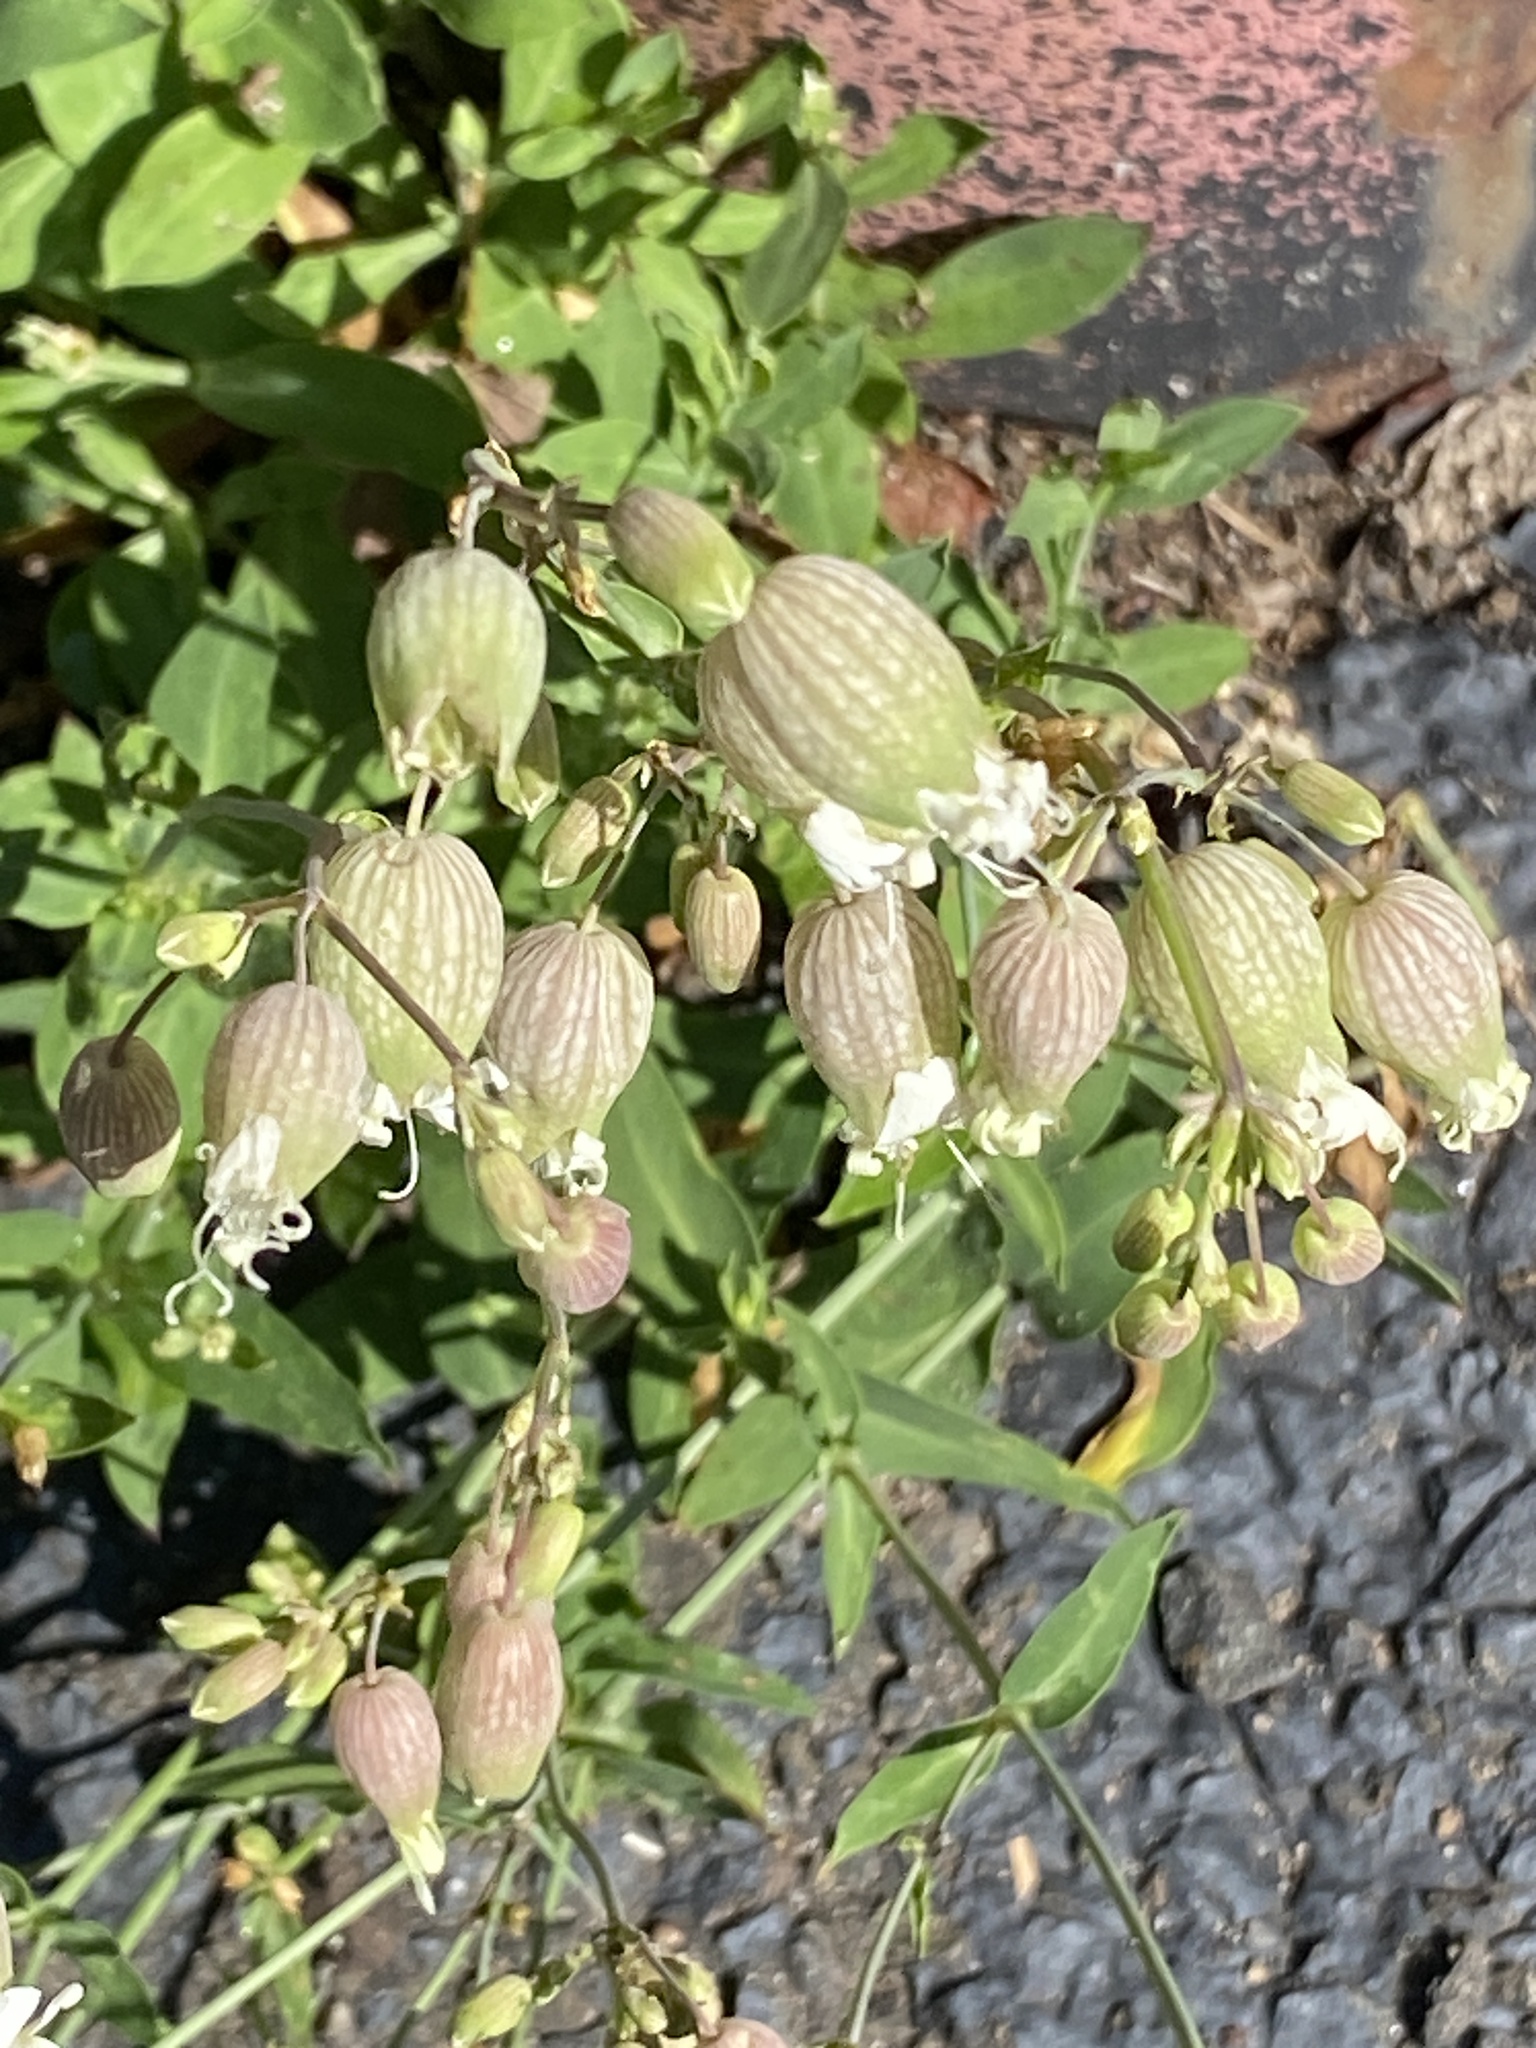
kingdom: Plantae
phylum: Tracheophyta
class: Magnoliopsida
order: Caryophyllales
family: Caryophyllaceae
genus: Silene
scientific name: Silene vulgaris
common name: Bladder campion
